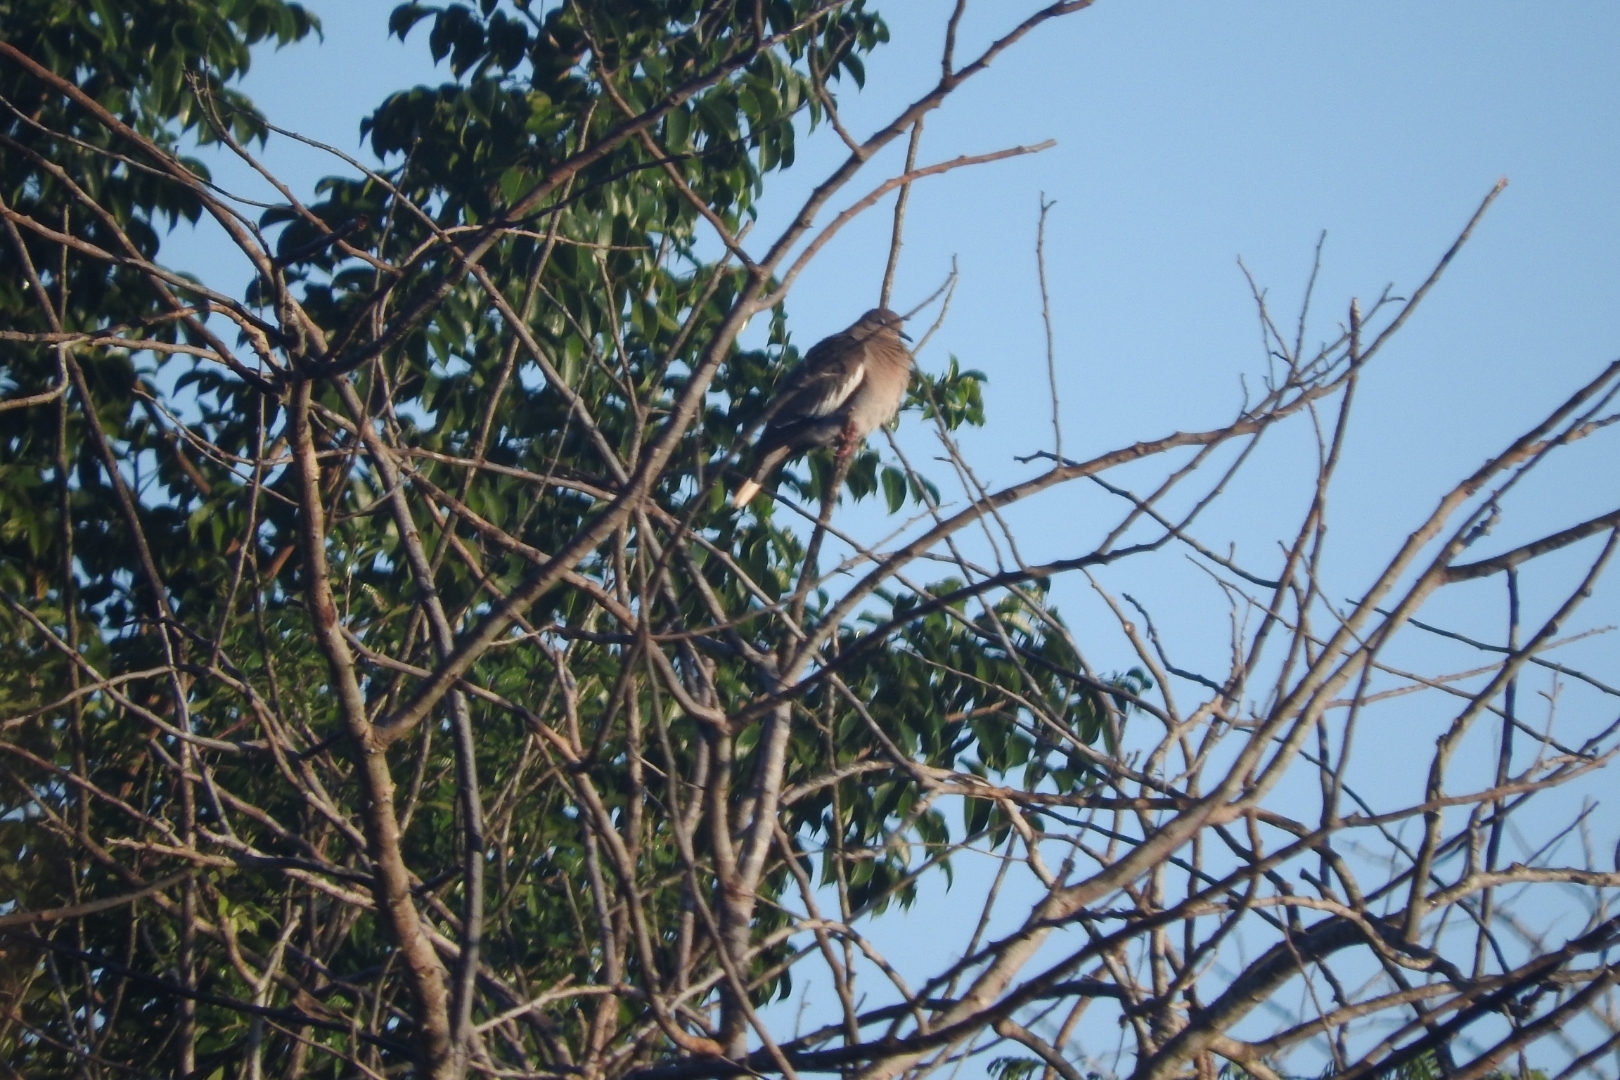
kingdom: Animalia
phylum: Chordata
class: Aves
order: Columbiformes
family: Columbidae
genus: Zenaida
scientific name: Zenaida asiatica
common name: White-winged dove
